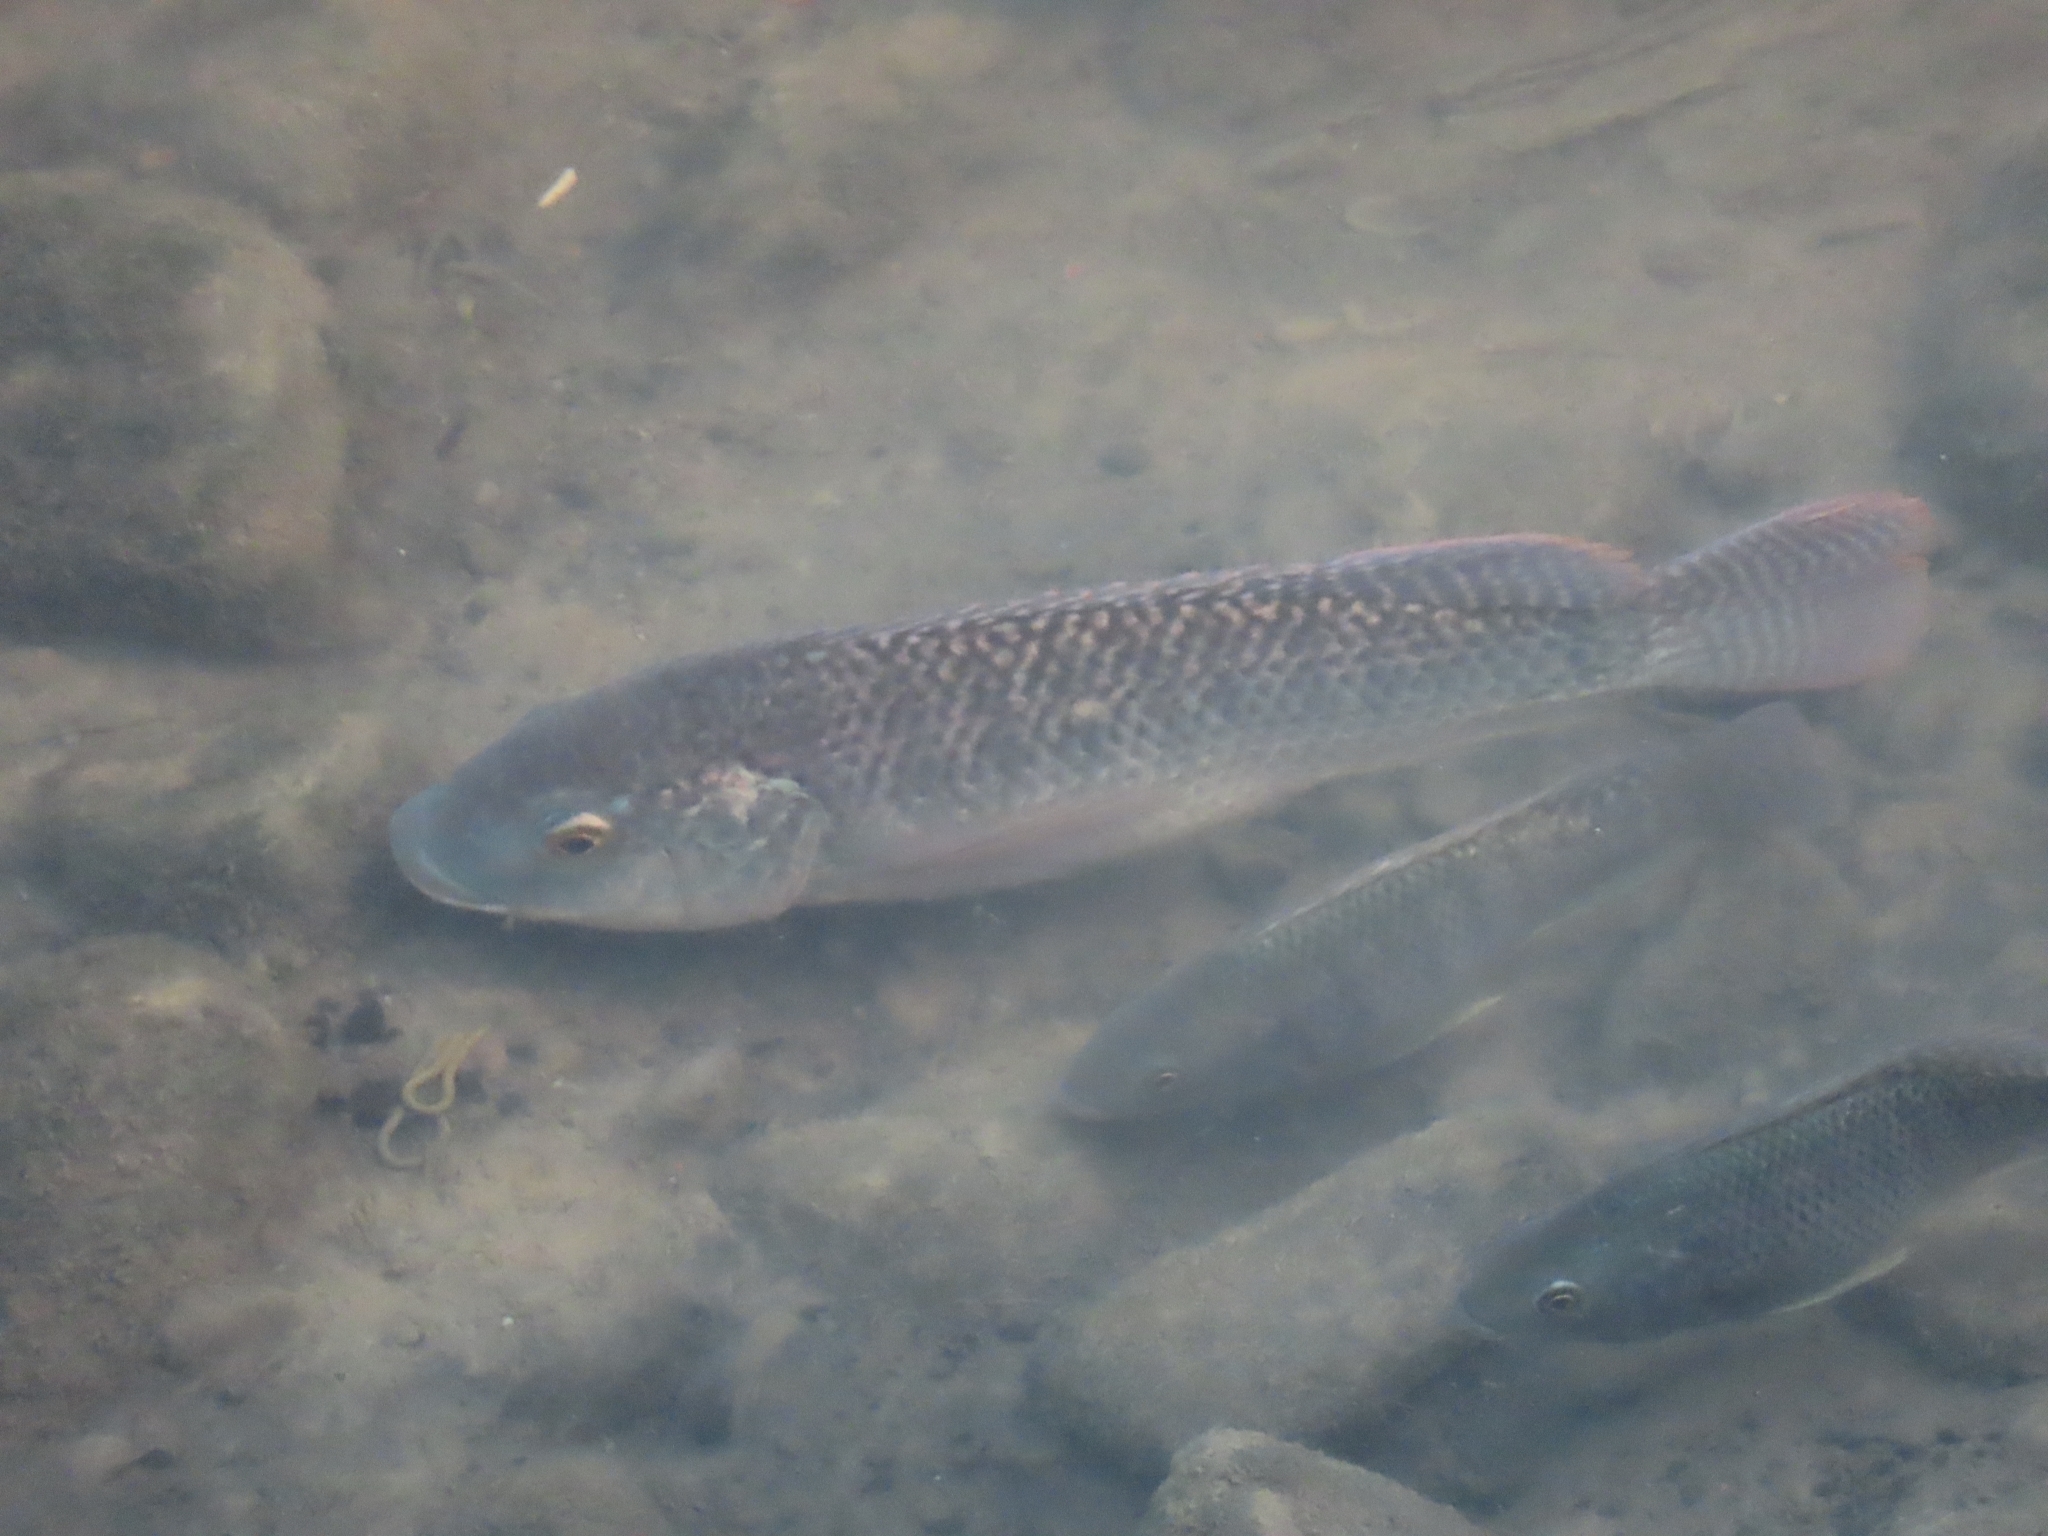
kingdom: Animalia
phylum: Chordata
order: Perciformes
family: Cichlidae
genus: Oreochromis
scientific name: Oreochromis niloticus
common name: Nile tilapia
